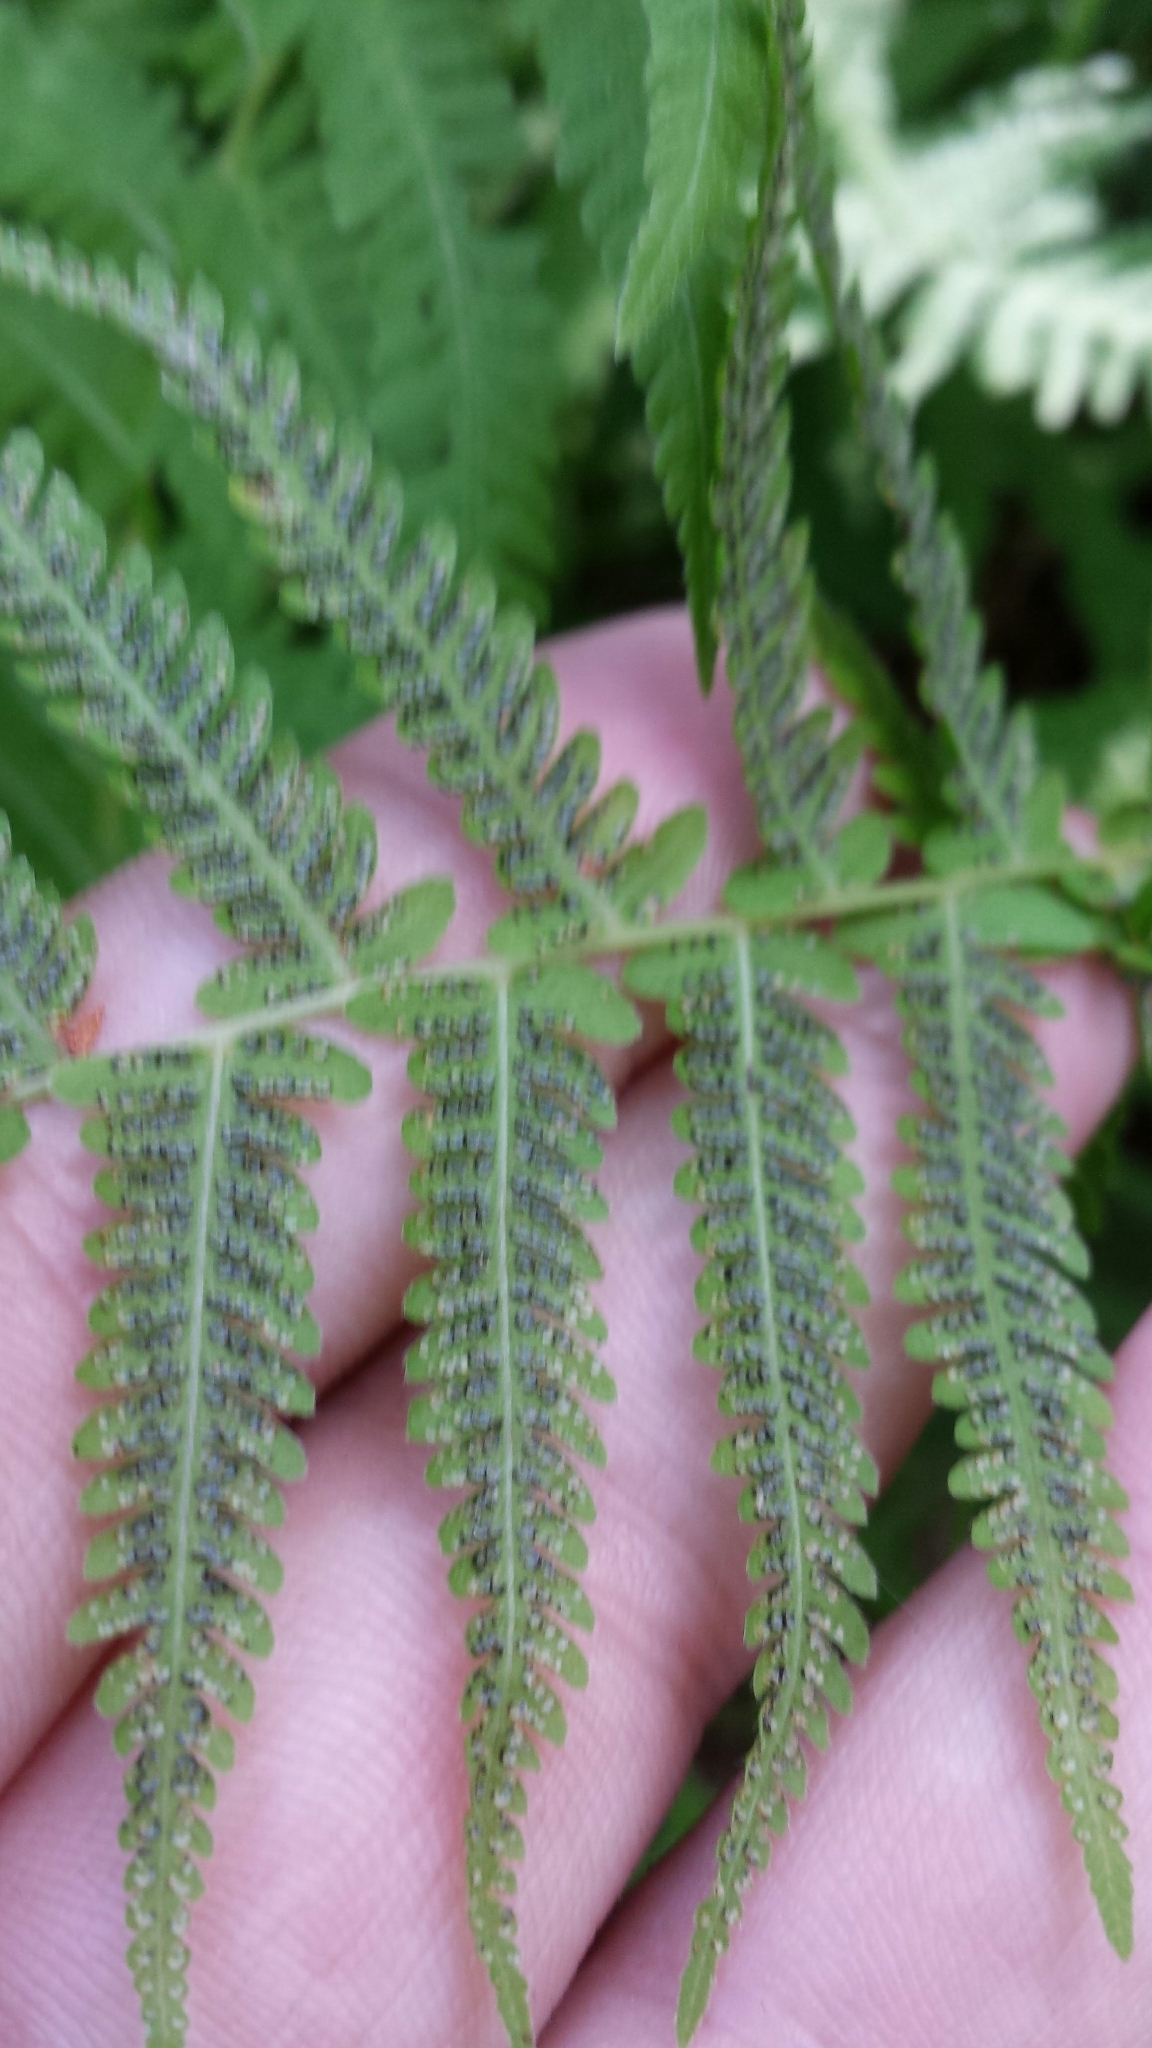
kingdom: Plantae
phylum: Tracheophyta
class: Polypodiopsida
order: Polypodiales
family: Thelypteridaceae
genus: Amauropelta
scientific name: Amauropelta noveboracensis
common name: New york fern
